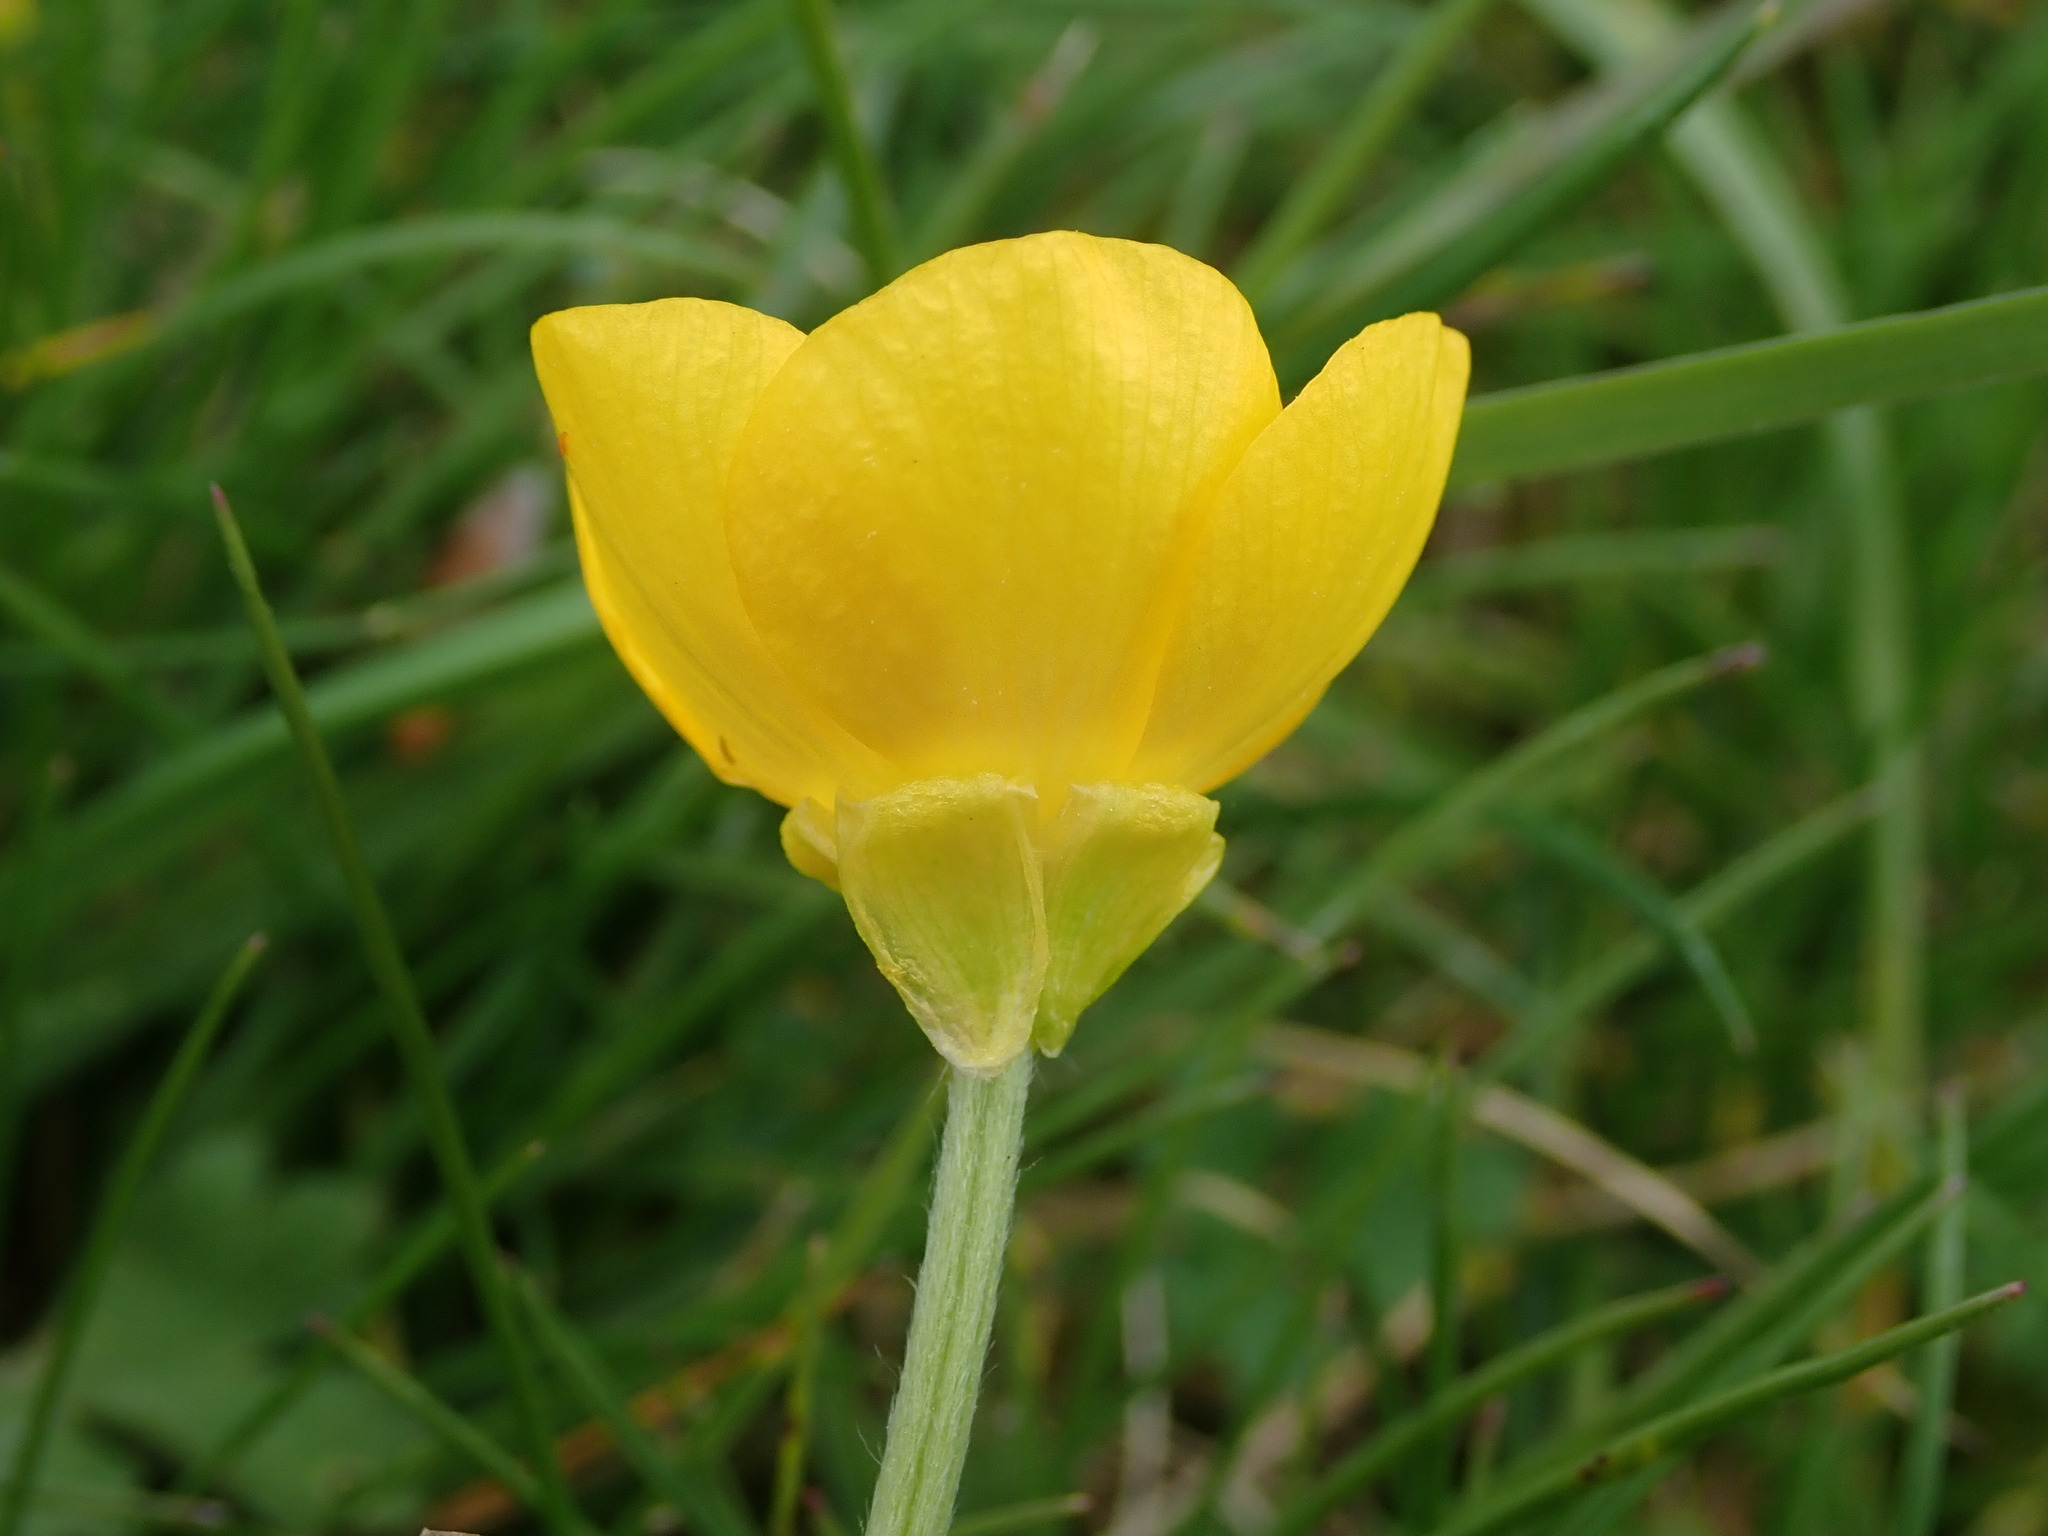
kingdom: Plantae
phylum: Tracheophyta
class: Magnoliopsida
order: Ranunculales
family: Ranunculaceae
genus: Ranunculus
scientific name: Ranunculus bulbosus
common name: Bulbous buttercup
